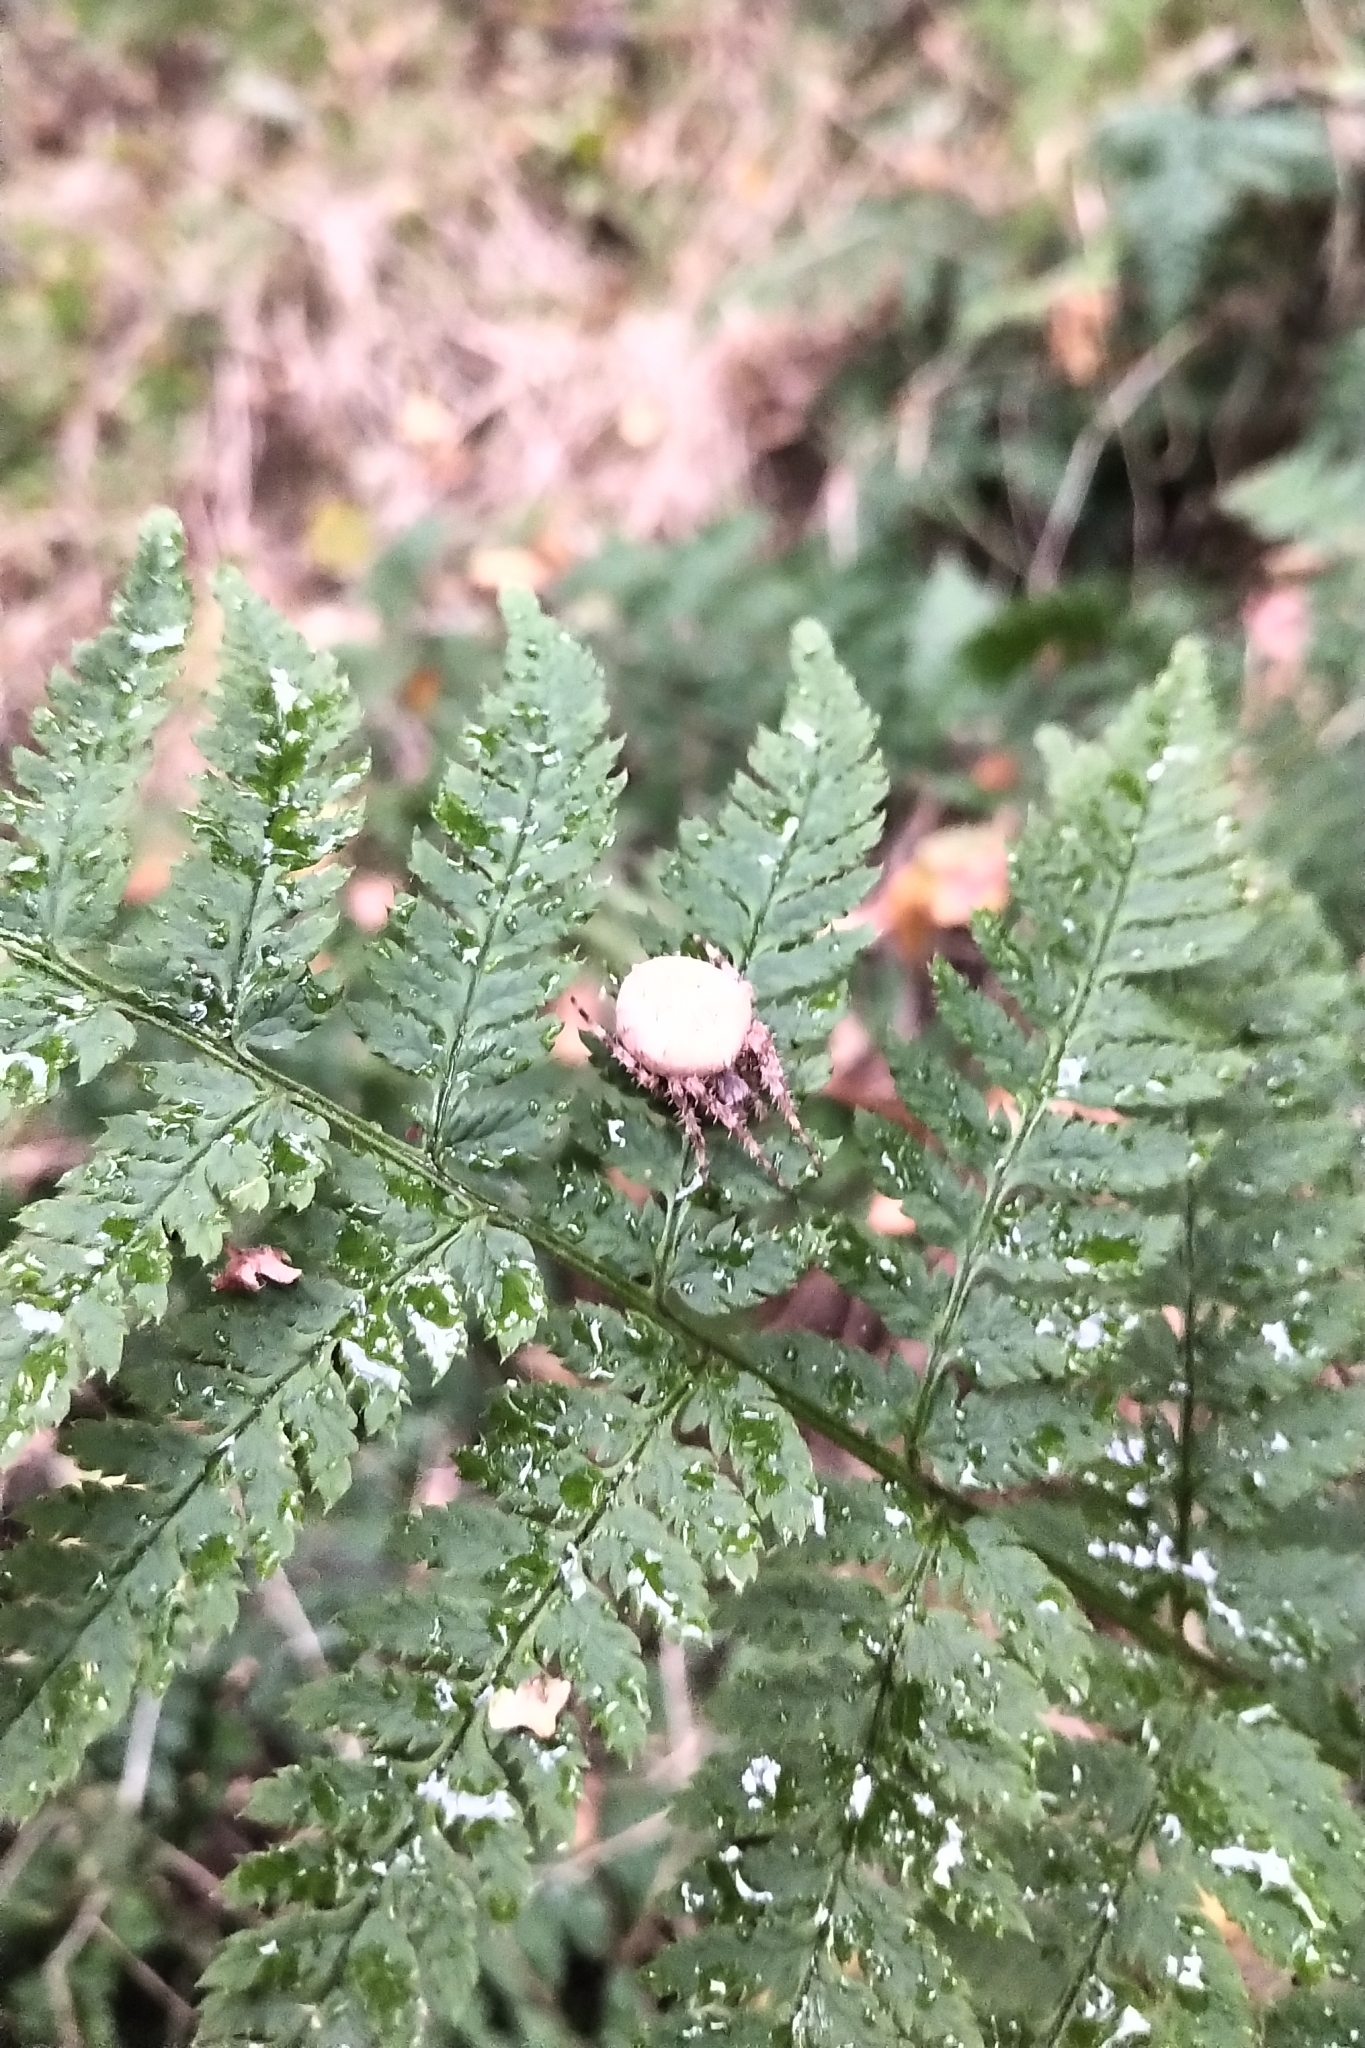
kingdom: Animalia
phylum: Arthropoda
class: Arachnida
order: Araneae
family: Araneidae
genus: Araneus
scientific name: Araneus diadematus
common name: Cross orbweaver
